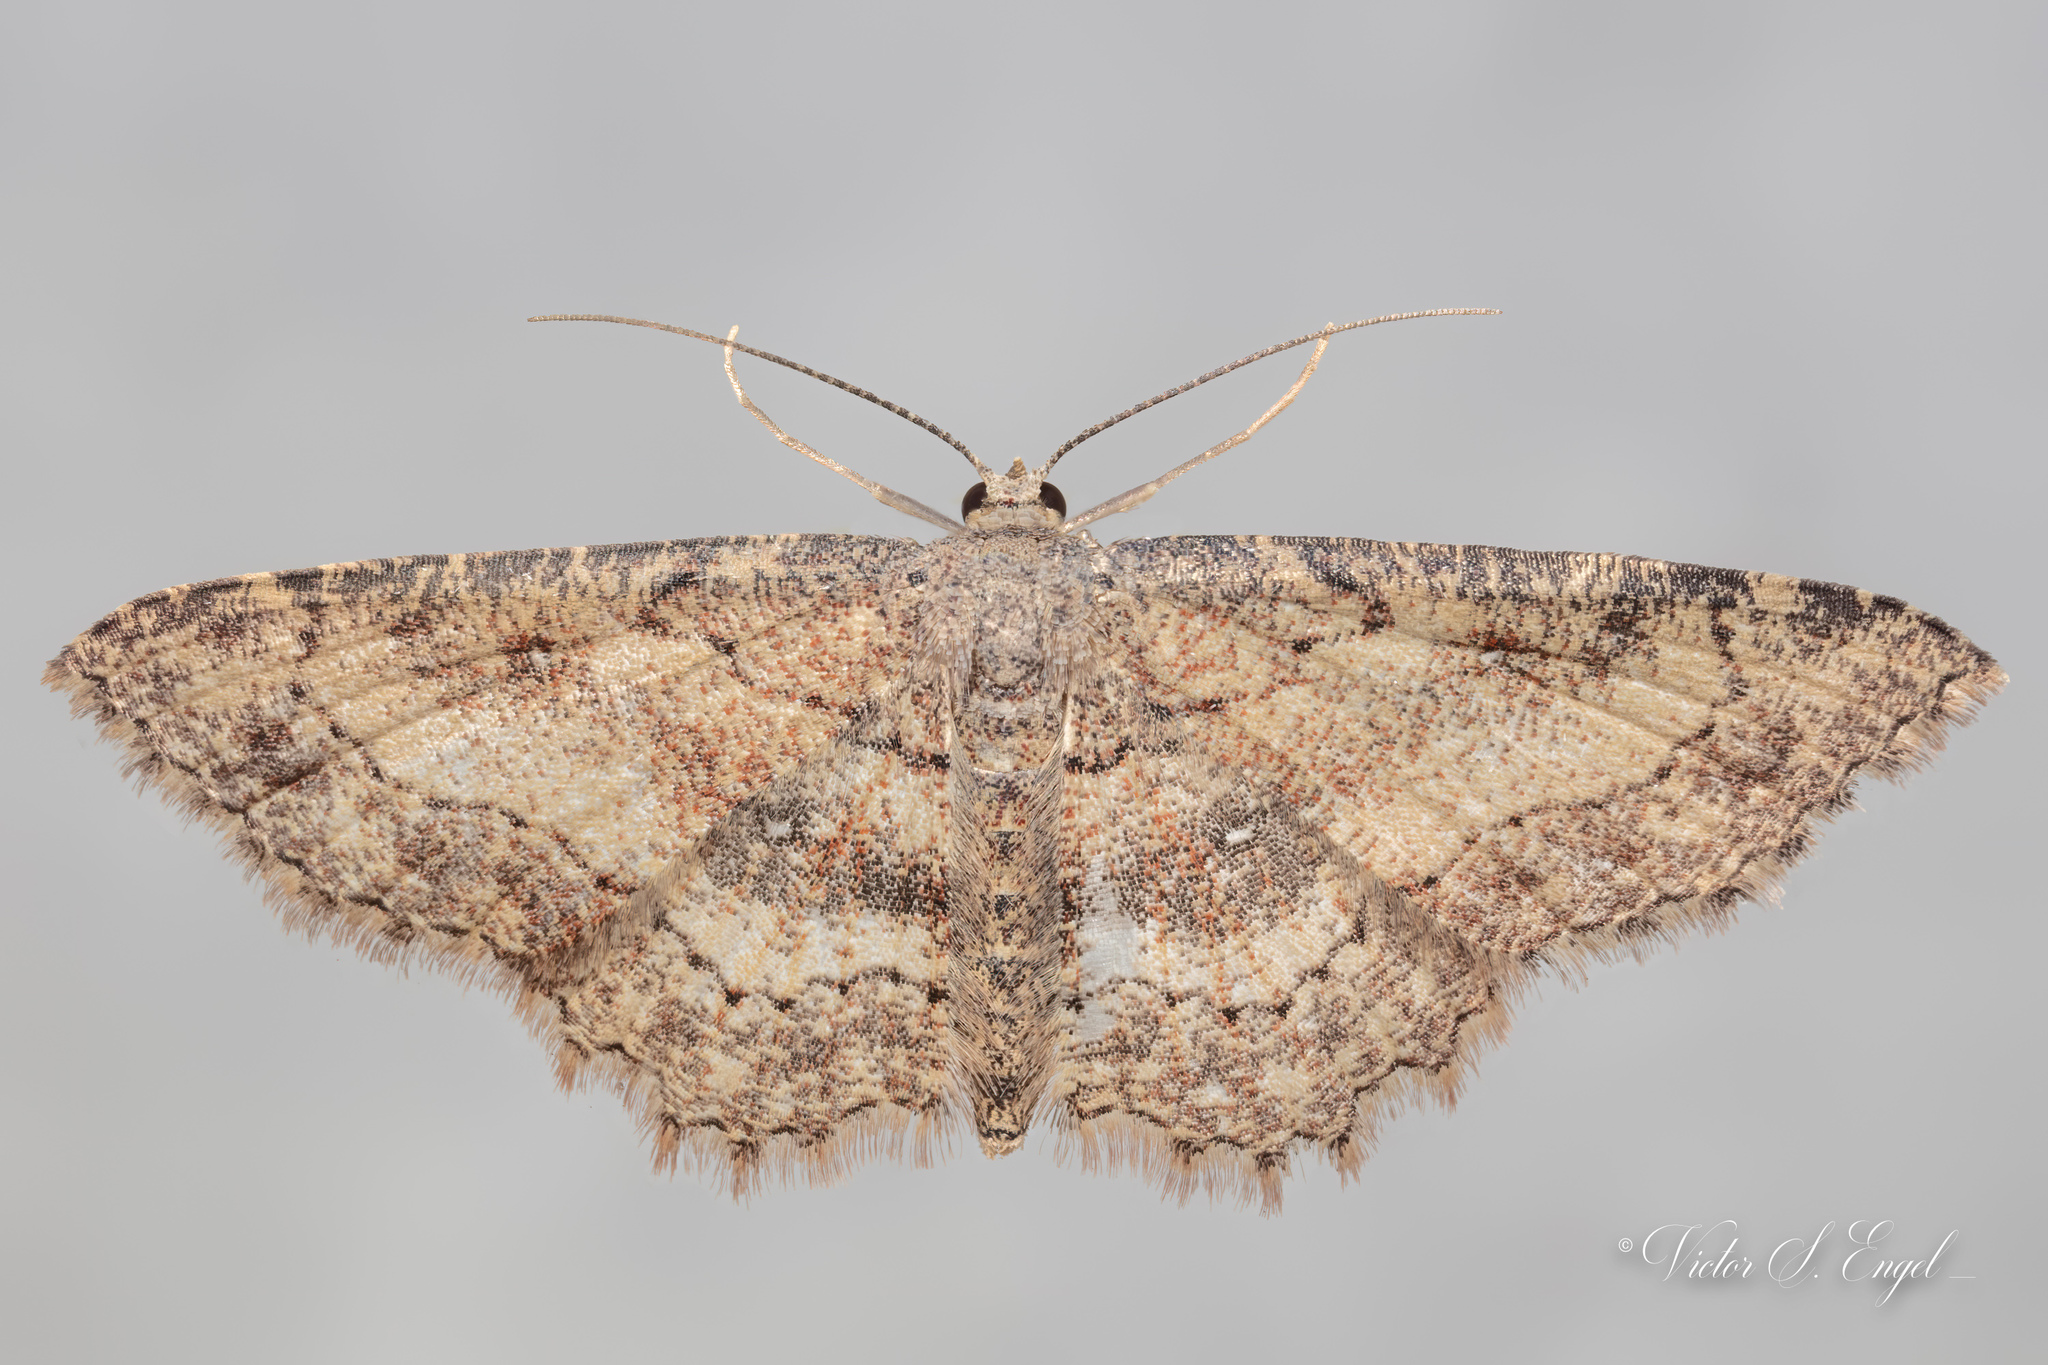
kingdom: Animalia
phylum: Arthropoda
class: Insecta
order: Lepidoptera
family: Geometridae
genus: Cyclophora
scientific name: Cyclophora nanaria
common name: Cankerworm
